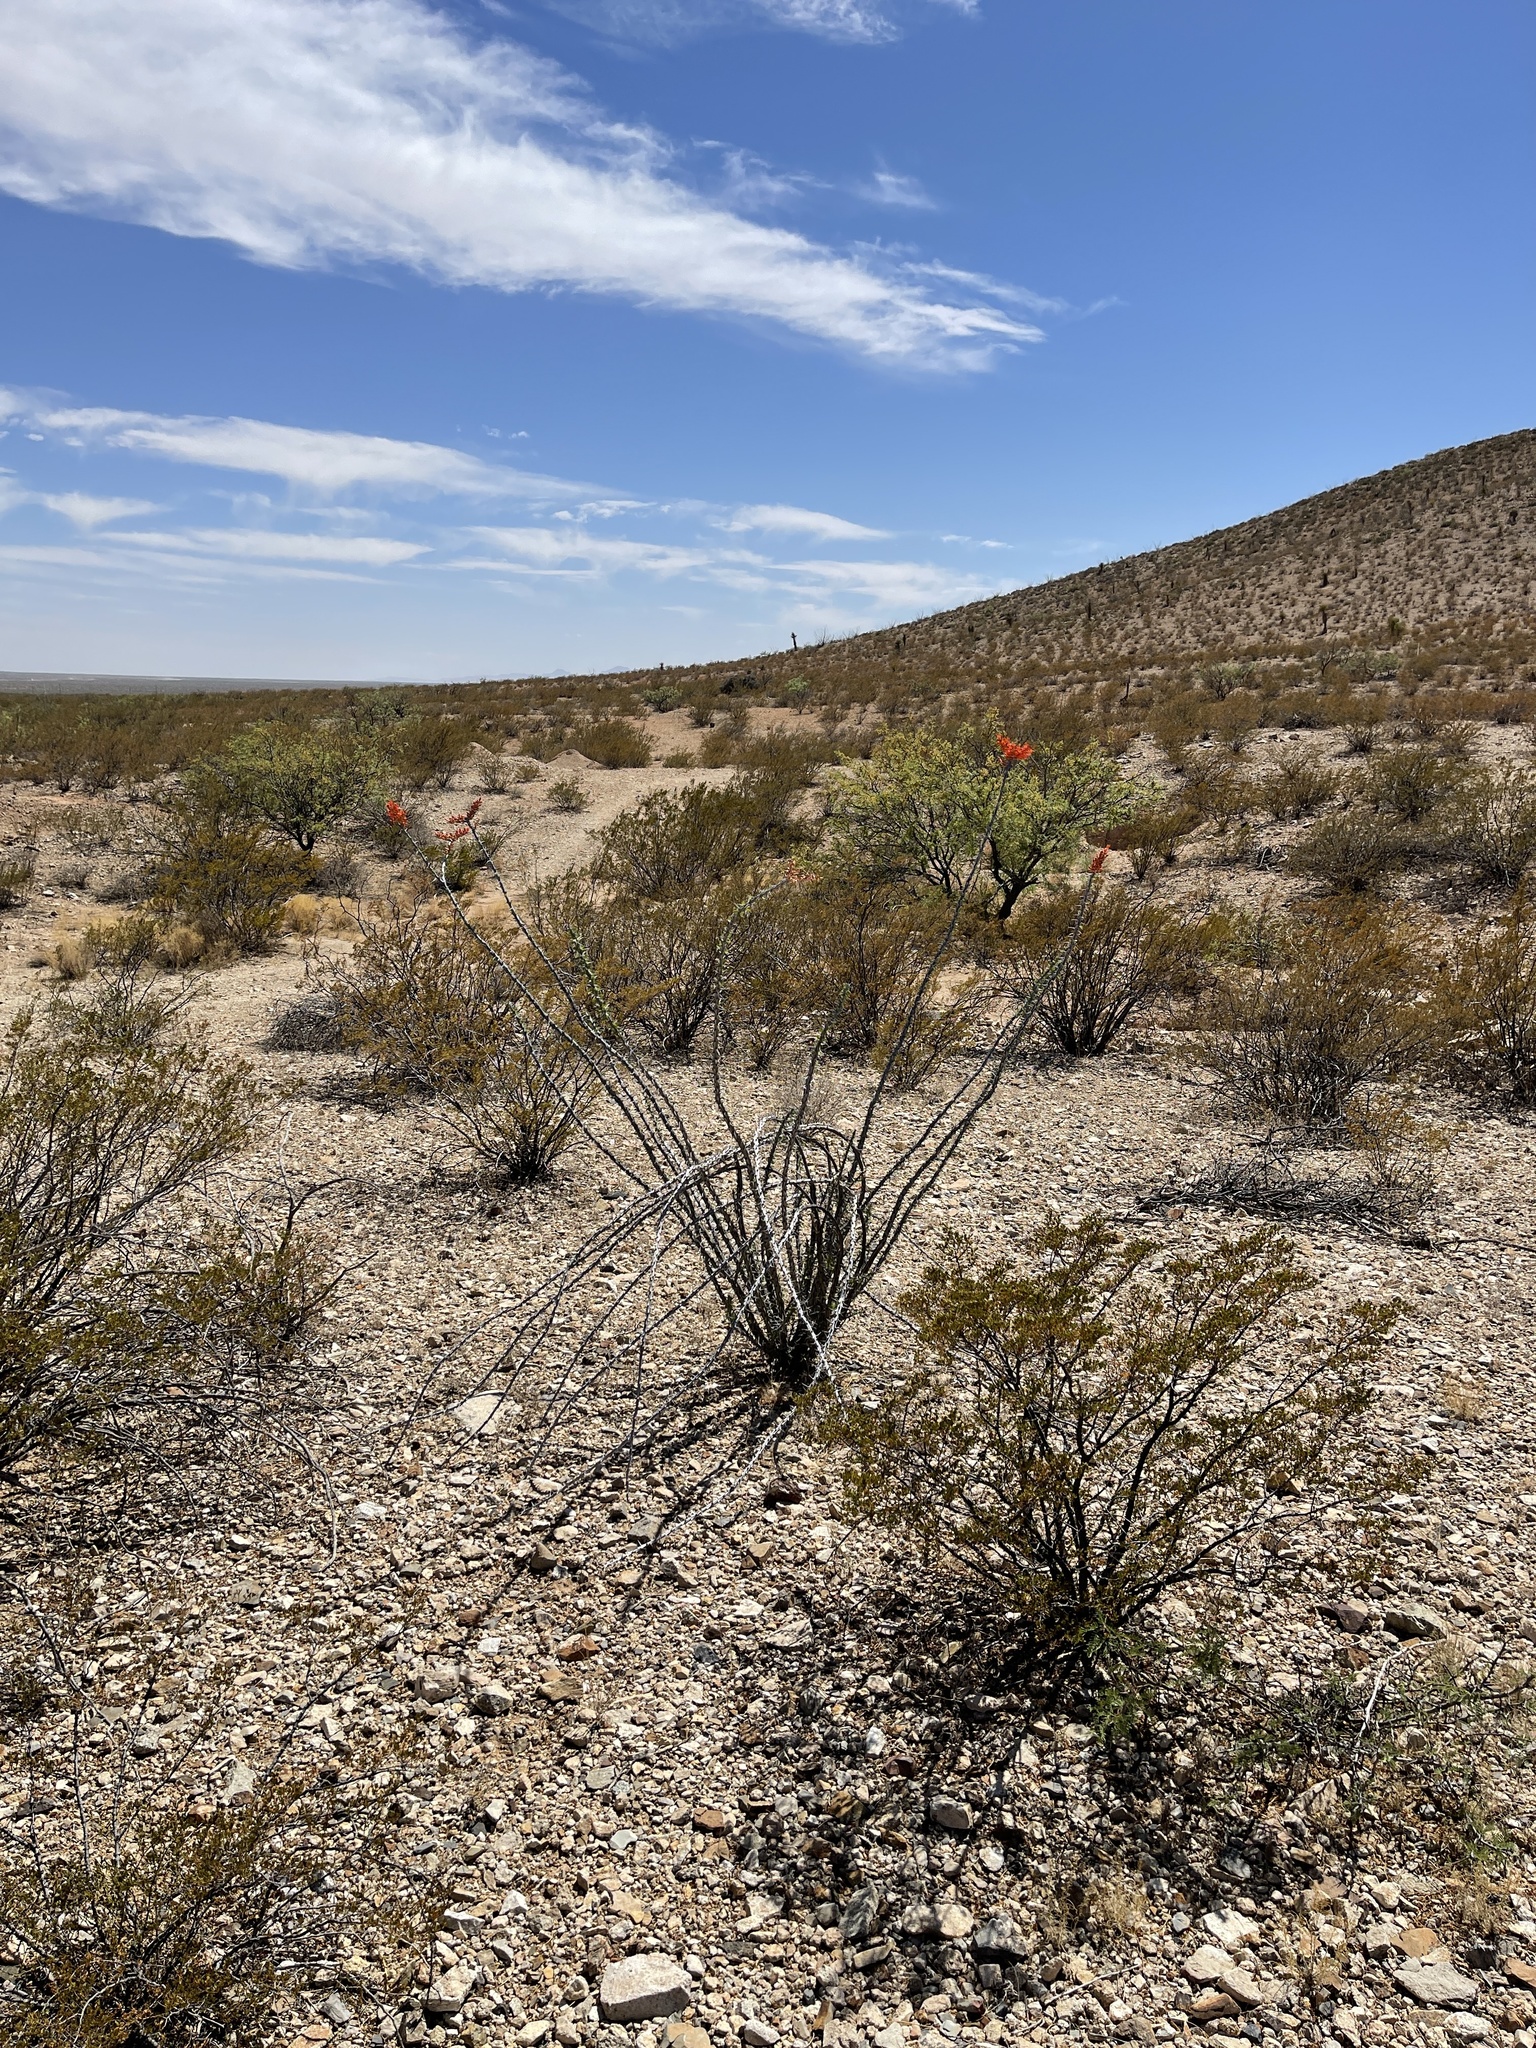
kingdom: Plantae
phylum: Tracheophyta
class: Magnoliopsida
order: Ericales
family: Fouquieriaceae
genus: Fouquieria
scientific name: Fouquieria splendens
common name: Vine-cactus
